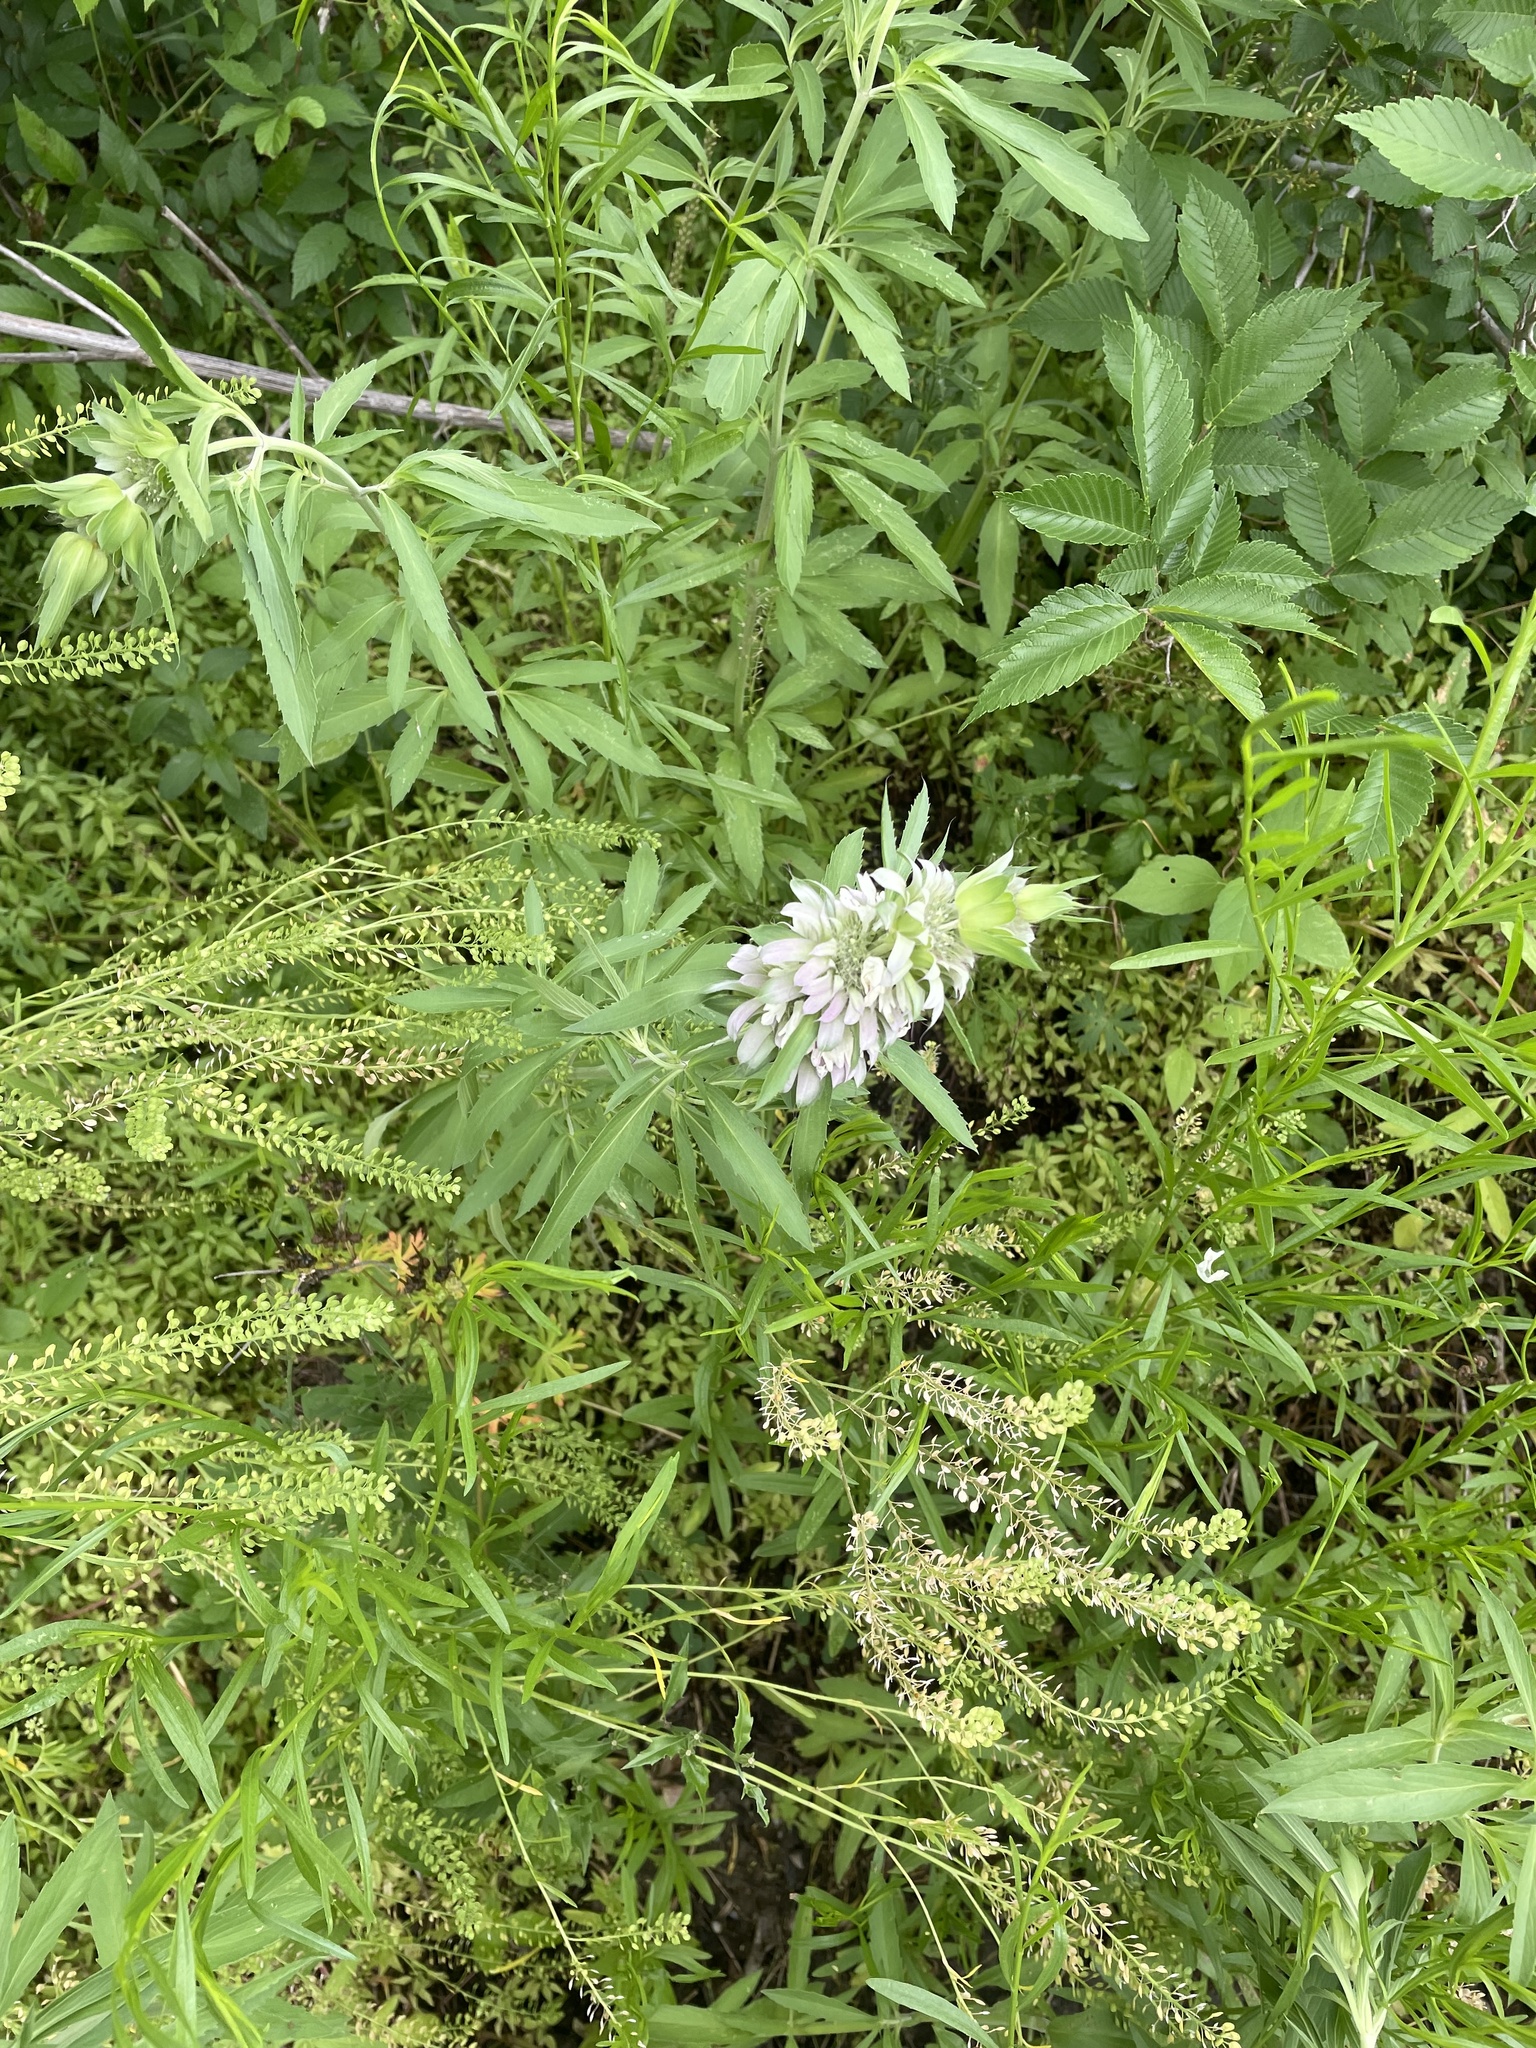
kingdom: Plantae
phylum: Tracheophyta
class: Magnoliopsida
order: Lamiales
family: Lamiaceae
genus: Monarda
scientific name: Monarda citriodora
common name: Lemon beebalm
